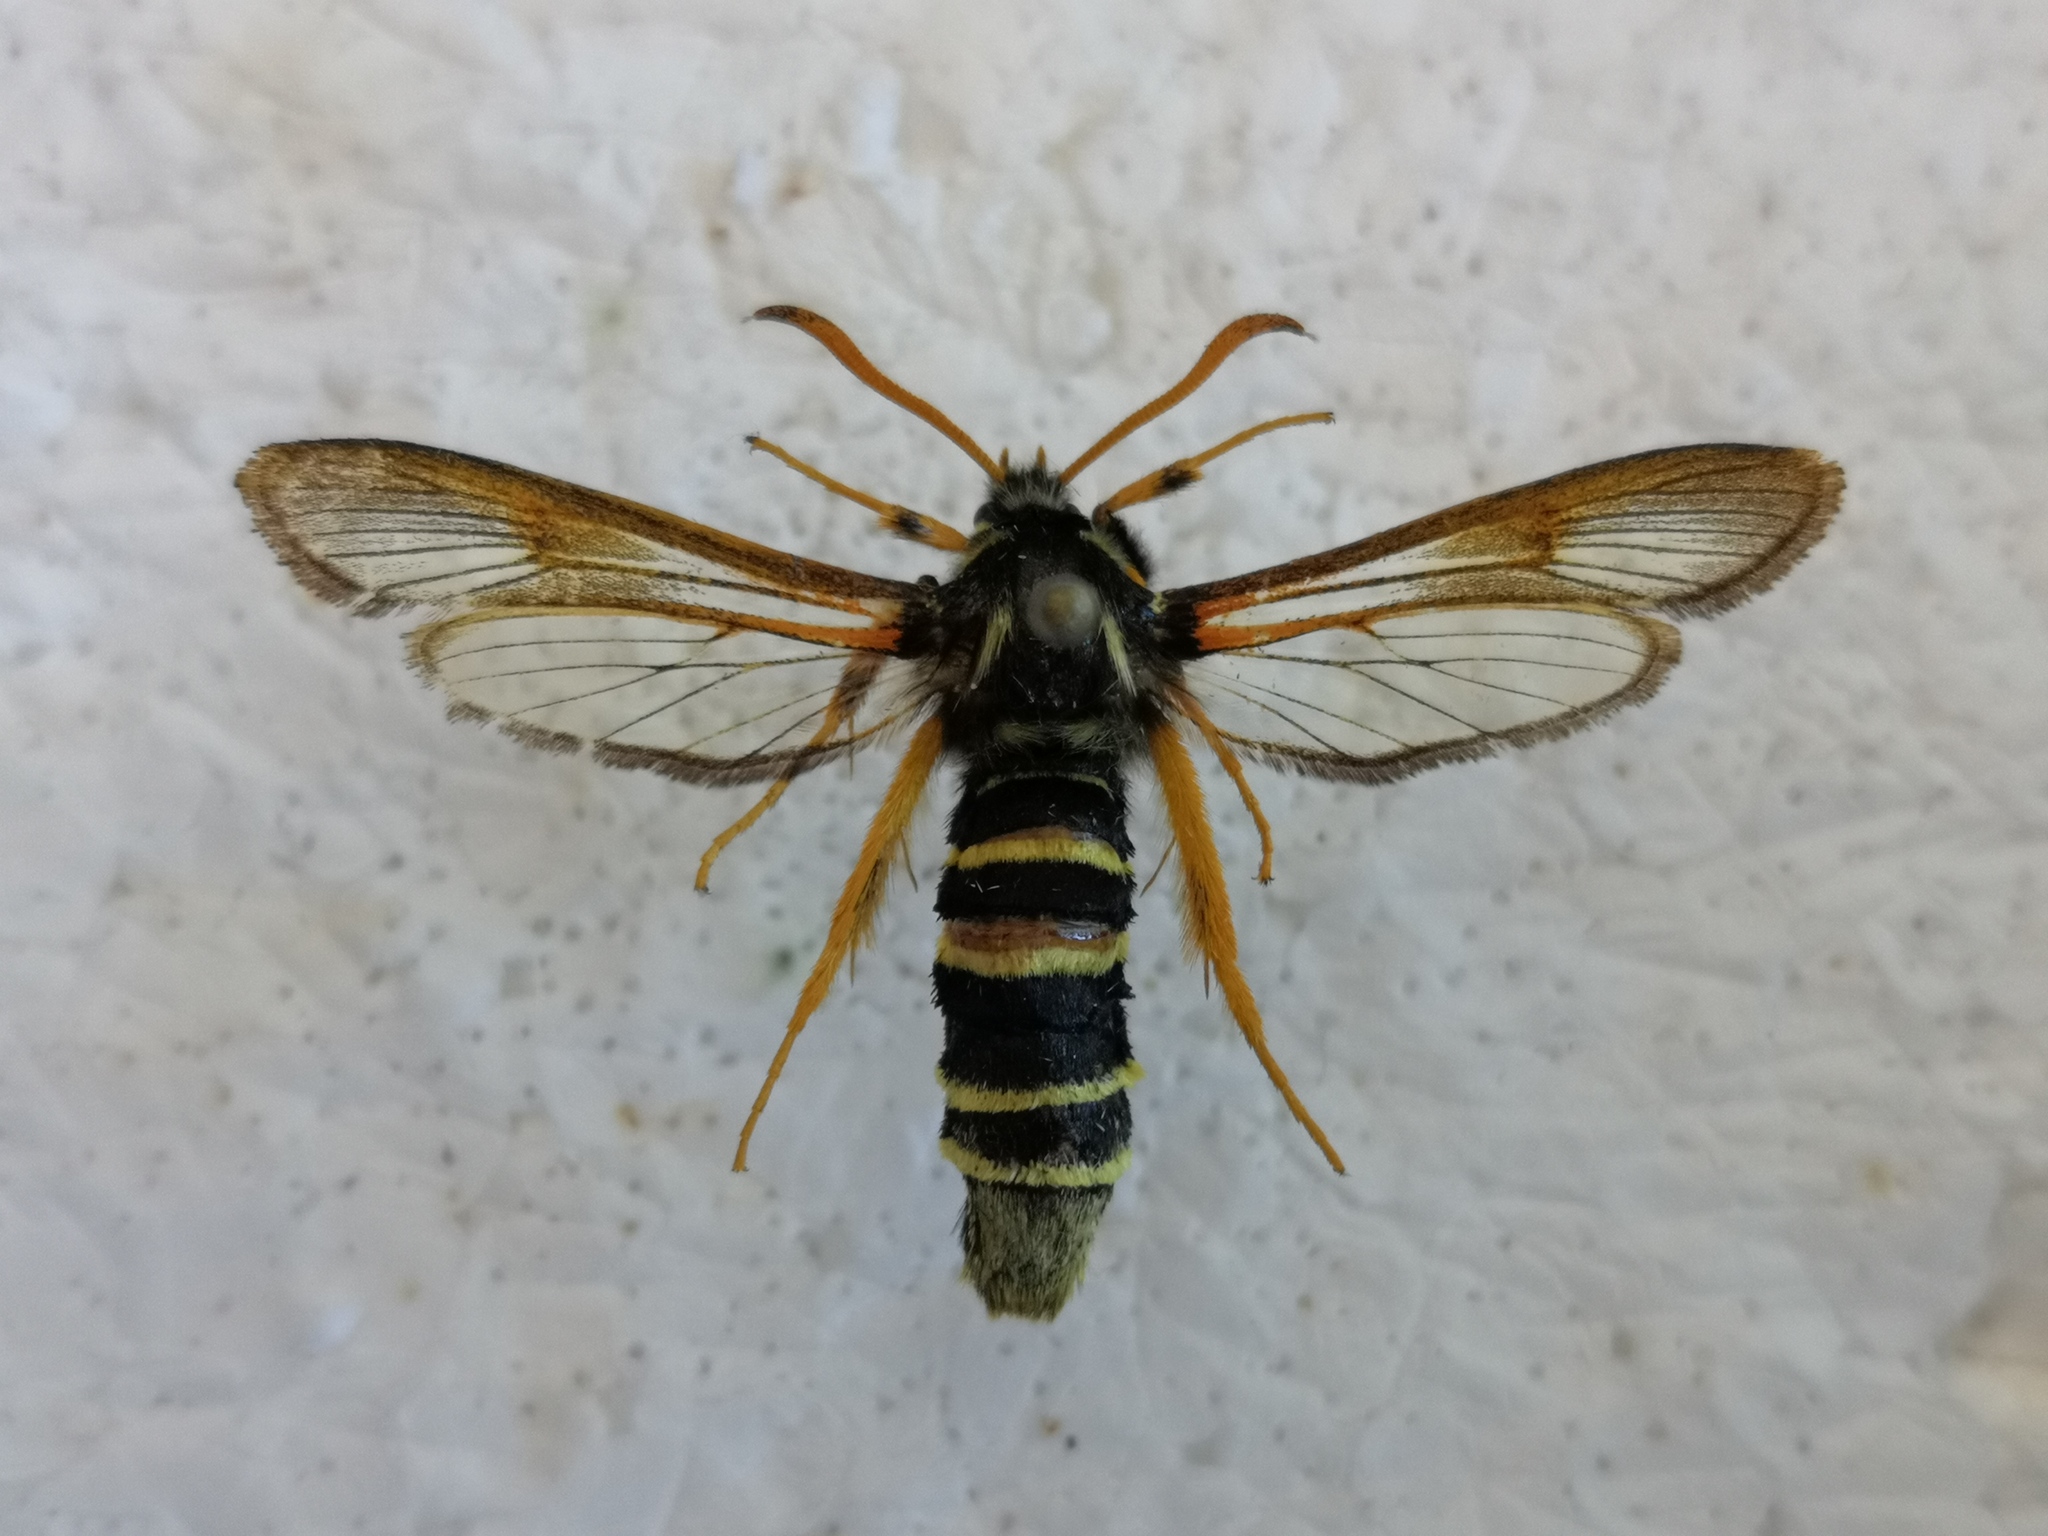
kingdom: Animalia
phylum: Arthropoda
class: Insecta
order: Lepidoptera
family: Sesiidae
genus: Eusphecia
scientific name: Eusphecia melanocephala
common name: Aspen clearwing
